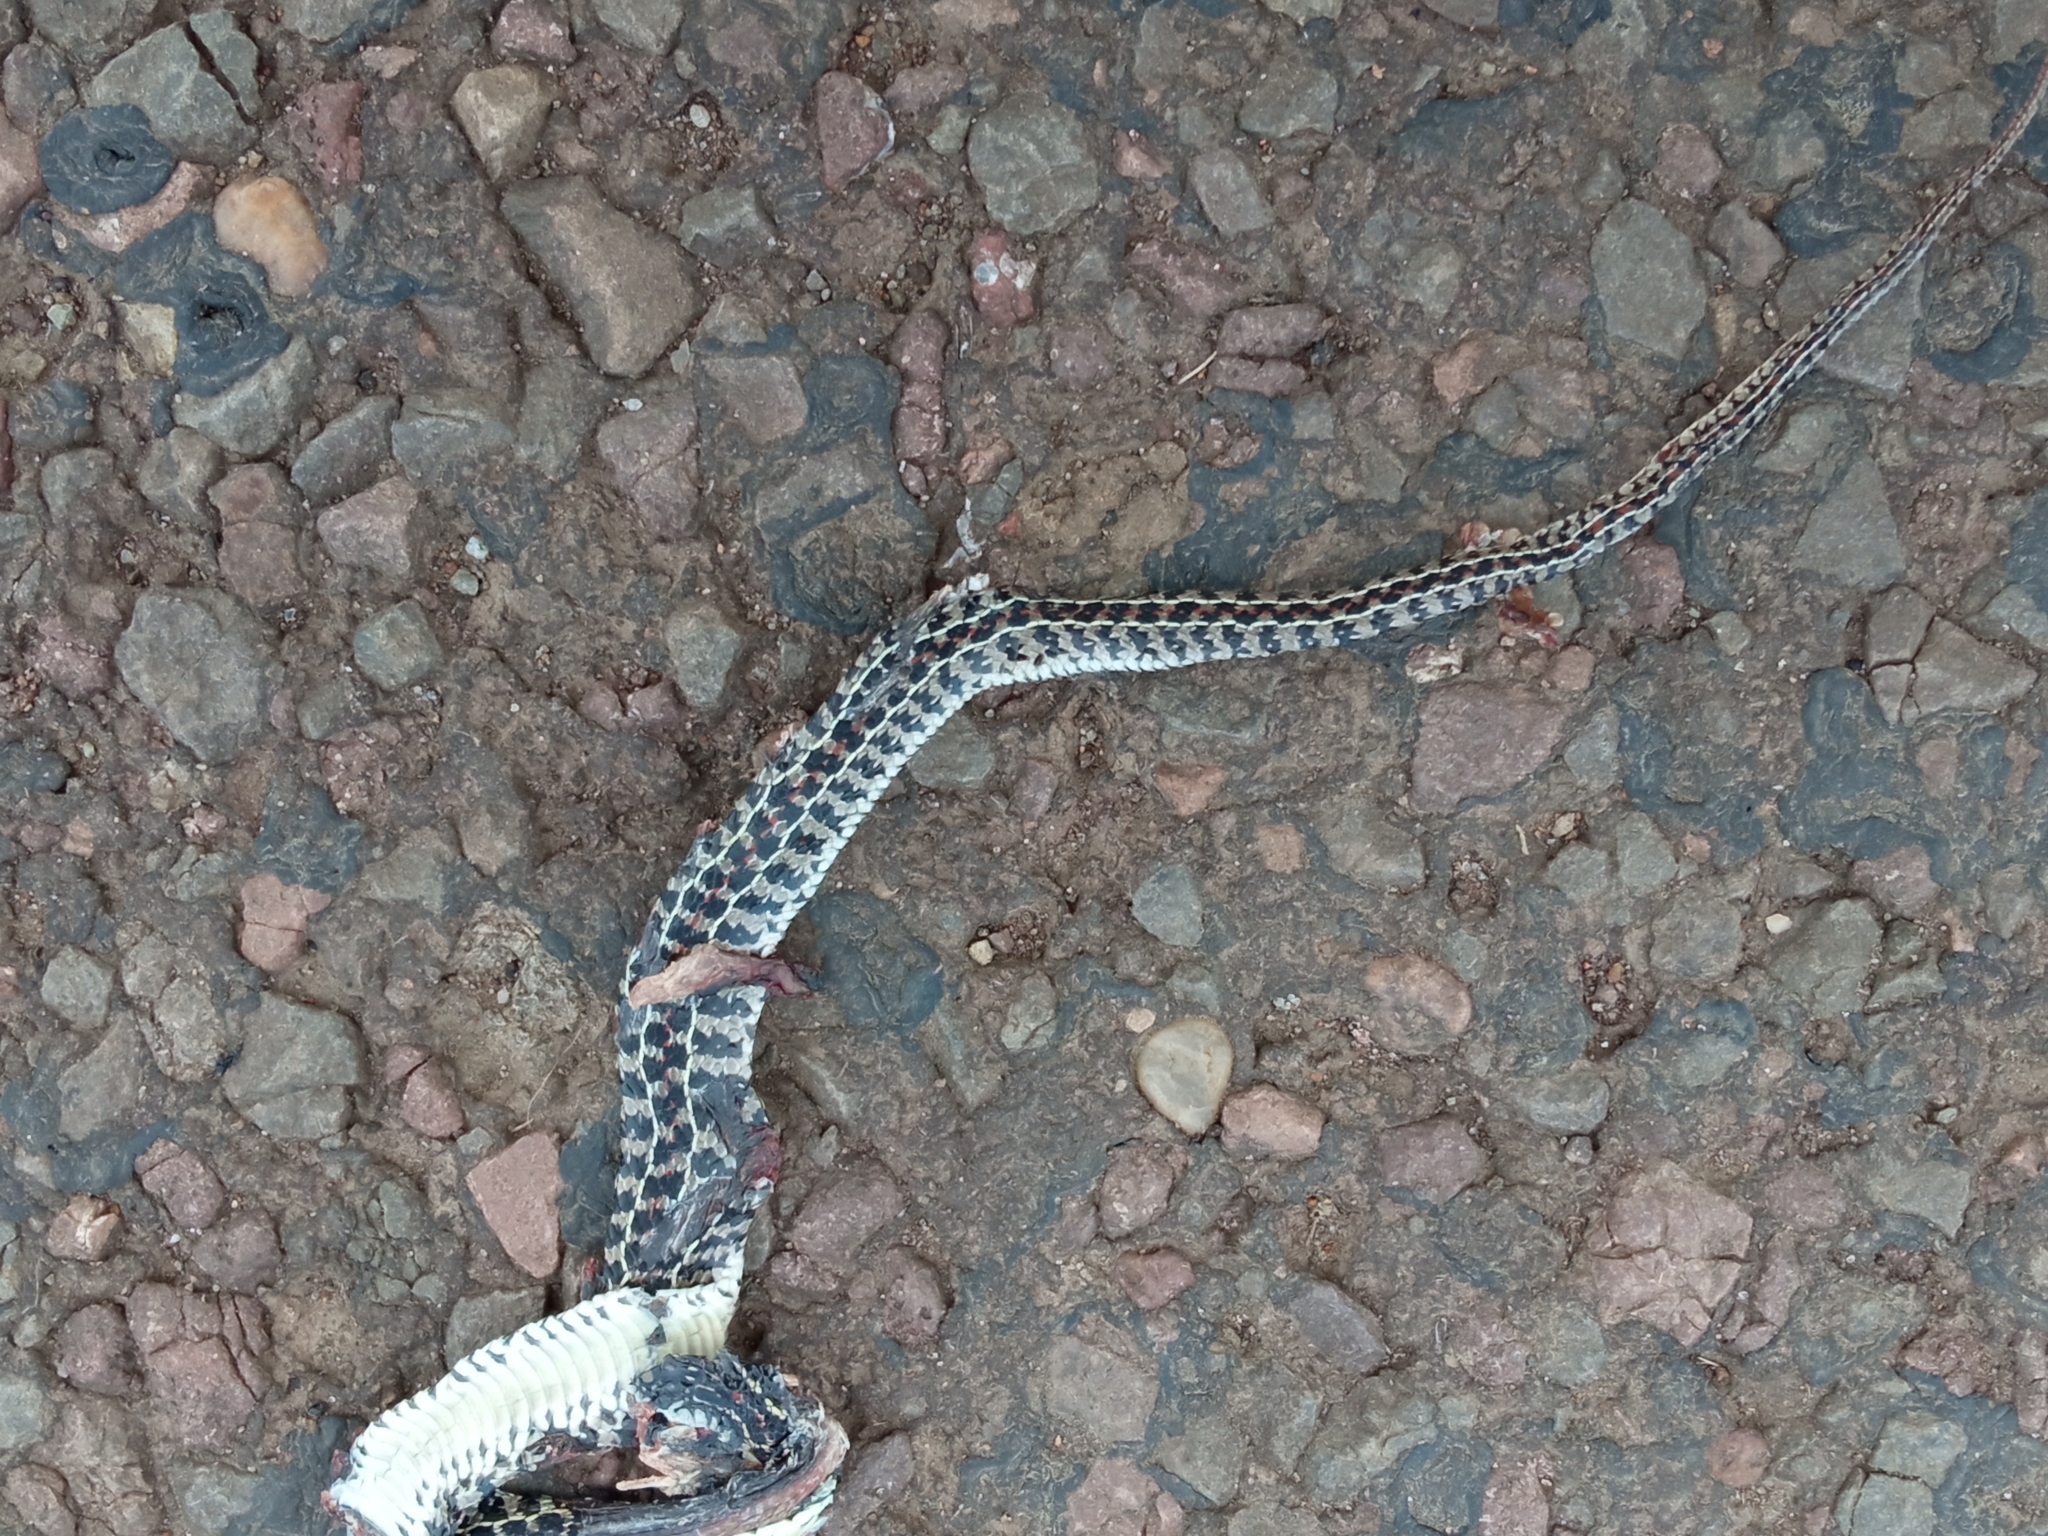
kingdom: Animalia
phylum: Chordata
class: Squamata
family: Colubridae
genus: Lygophis
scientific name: Lygophis anomalus
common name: English common name not available
